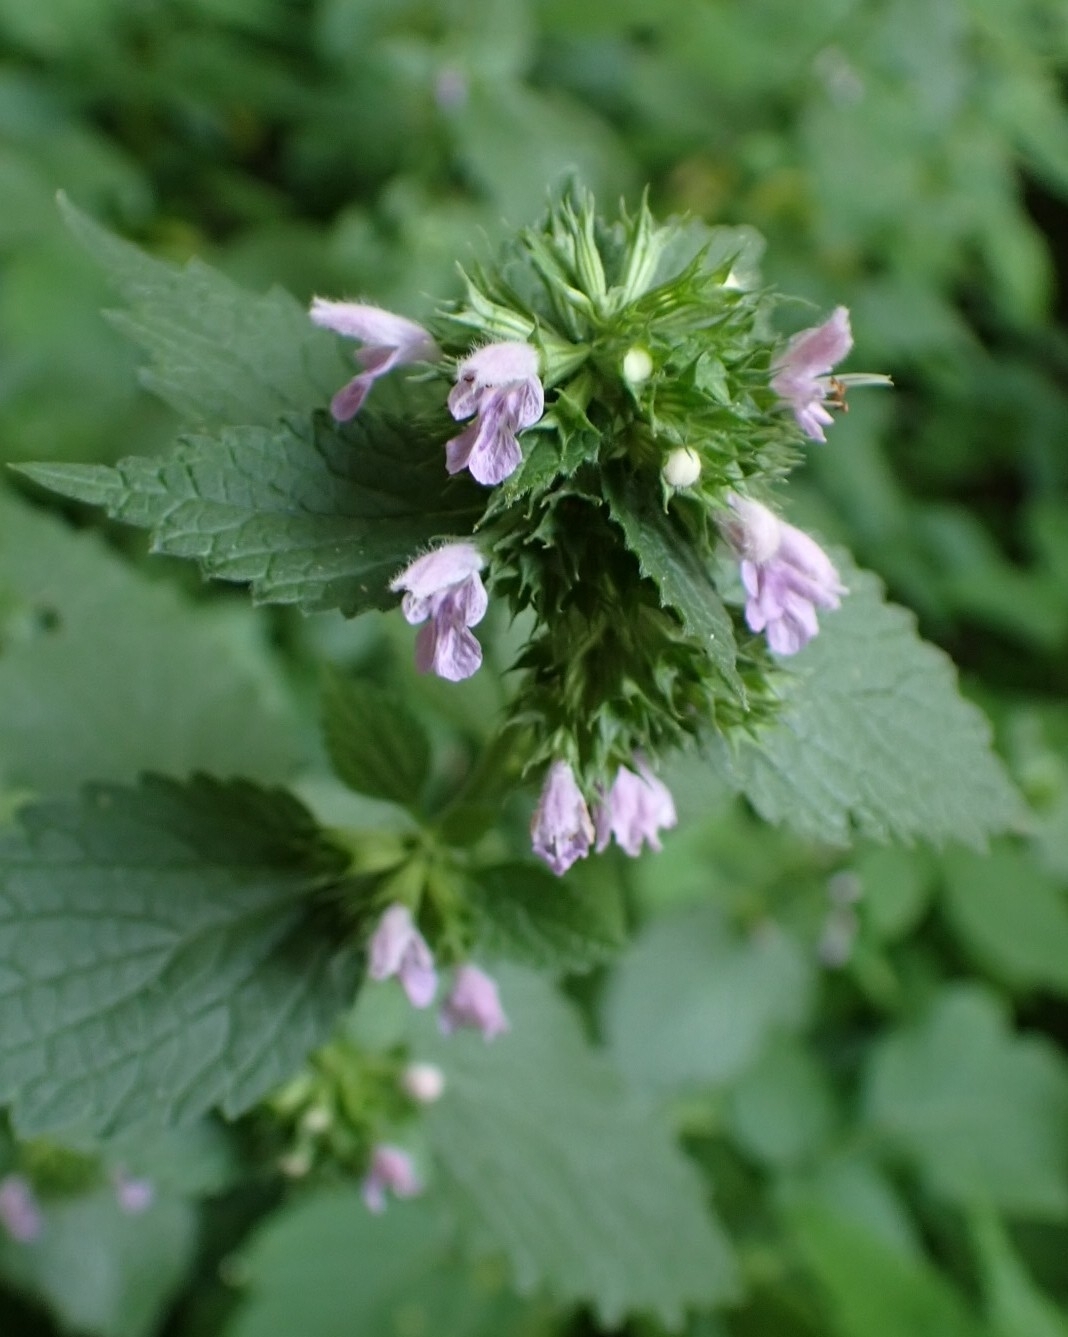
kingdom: Plantae
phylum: Tracheophyta
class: Magnoliopsida
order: Lamiales
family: Lamiaceae
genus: Ballota
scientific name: Ballota nigra
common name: Black horehound
